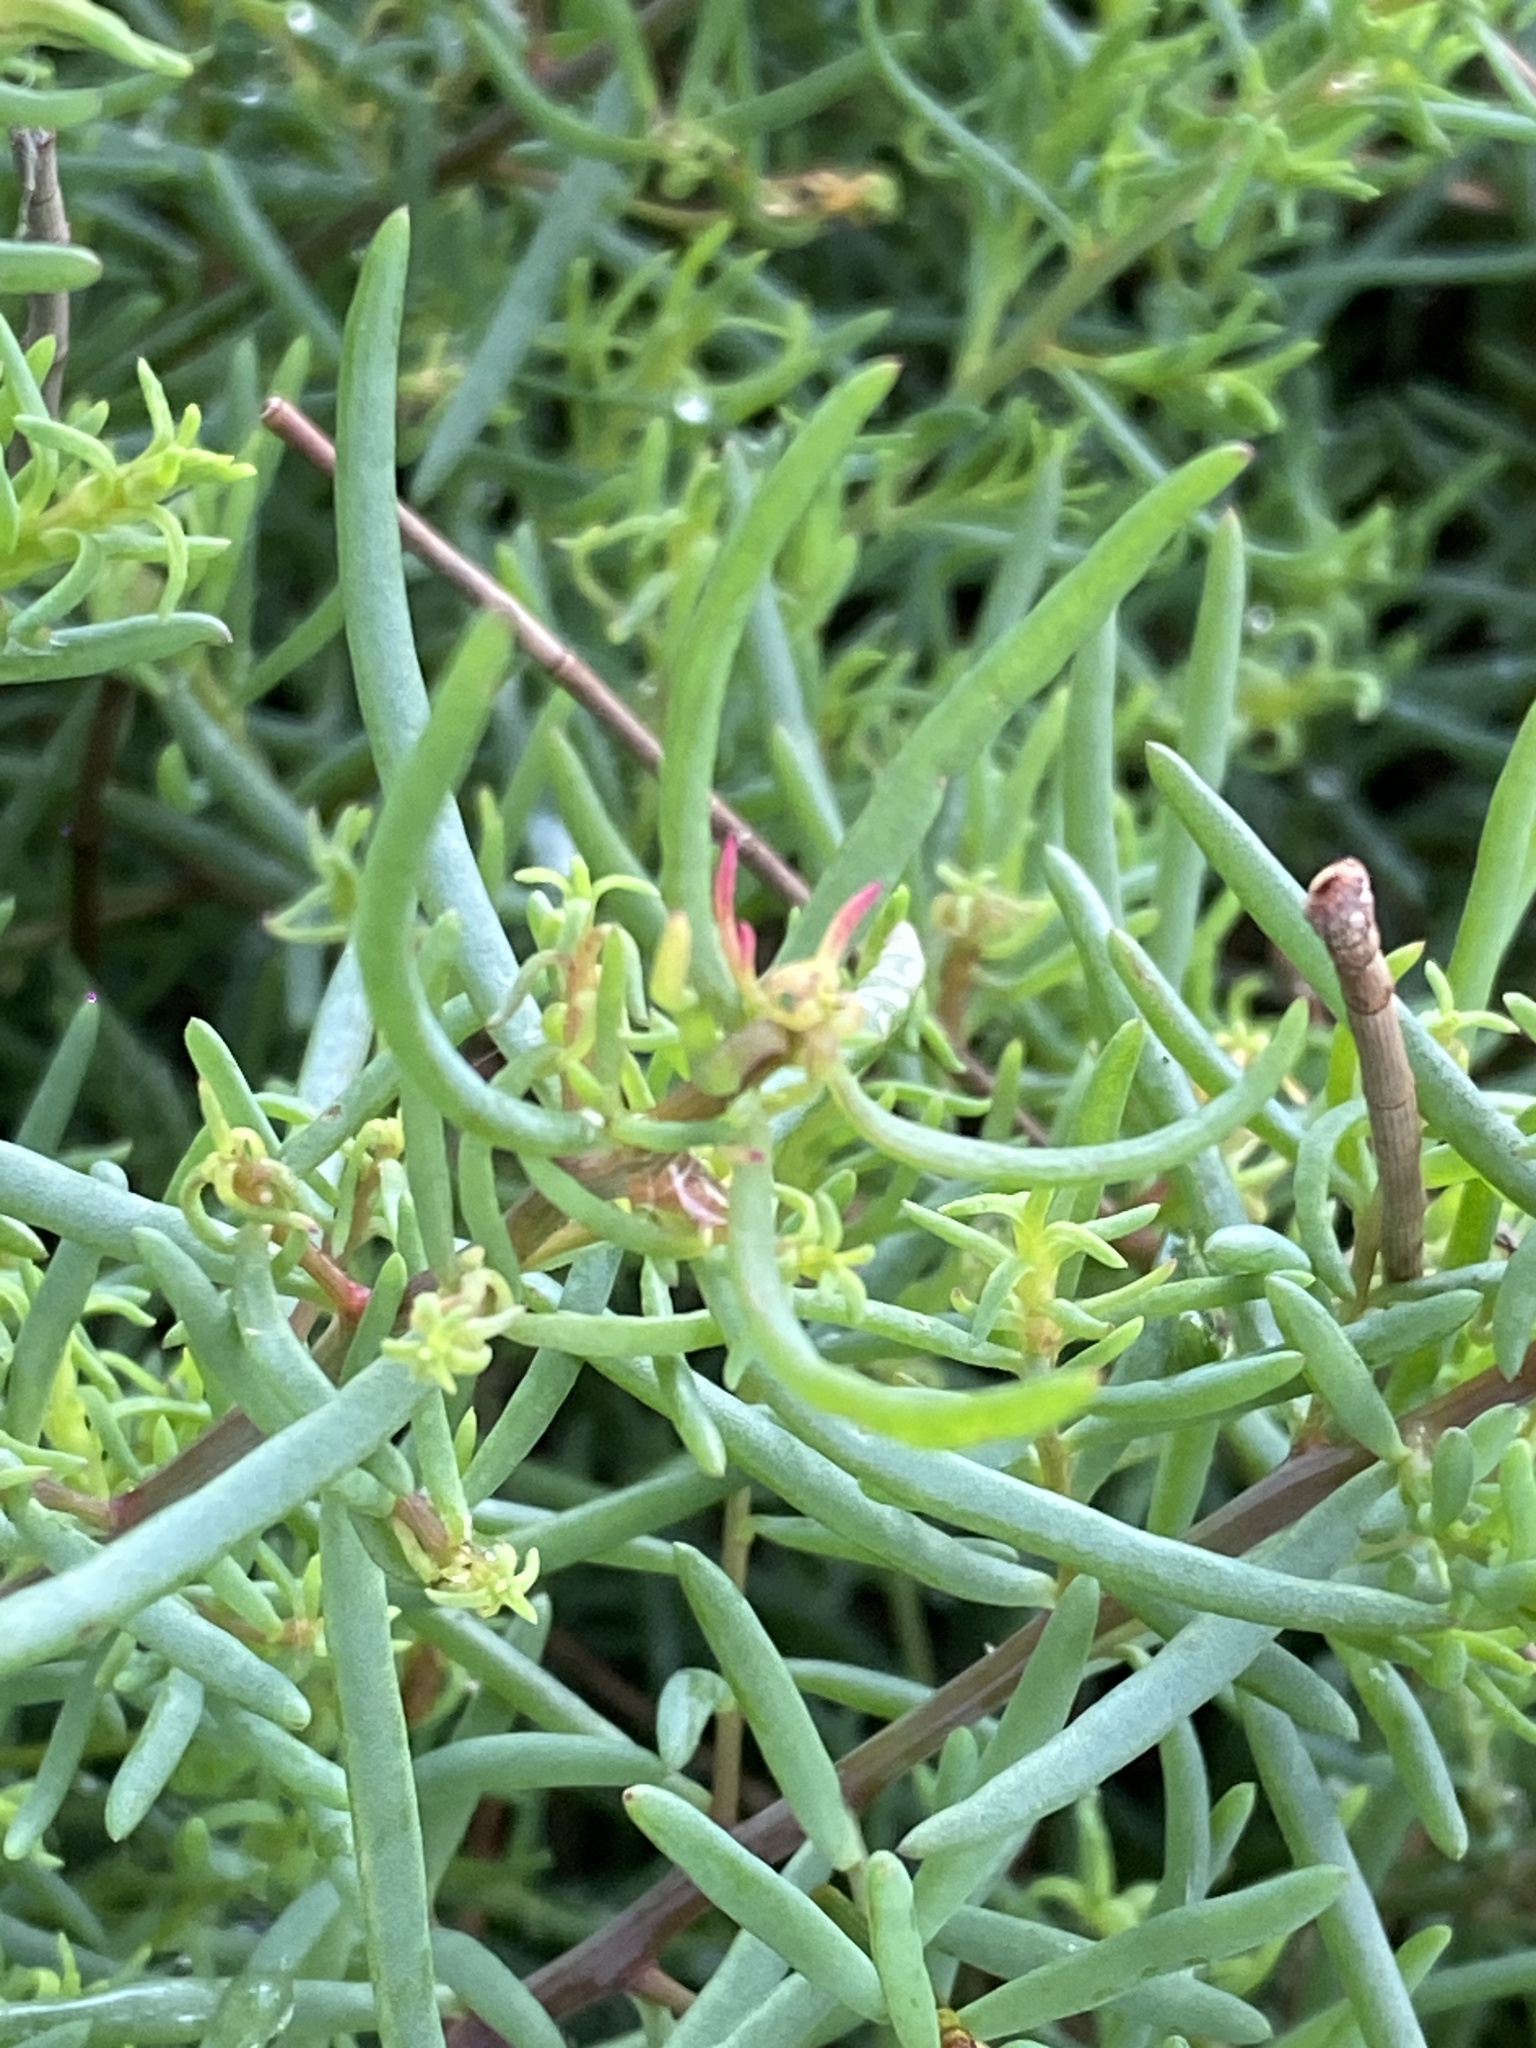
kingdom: Plantae
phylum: Tracheophyta
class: Magnoliopsida
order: Caryophyllales
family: Amaranthaceae
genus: Suaeda
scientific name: Suaeda australis
